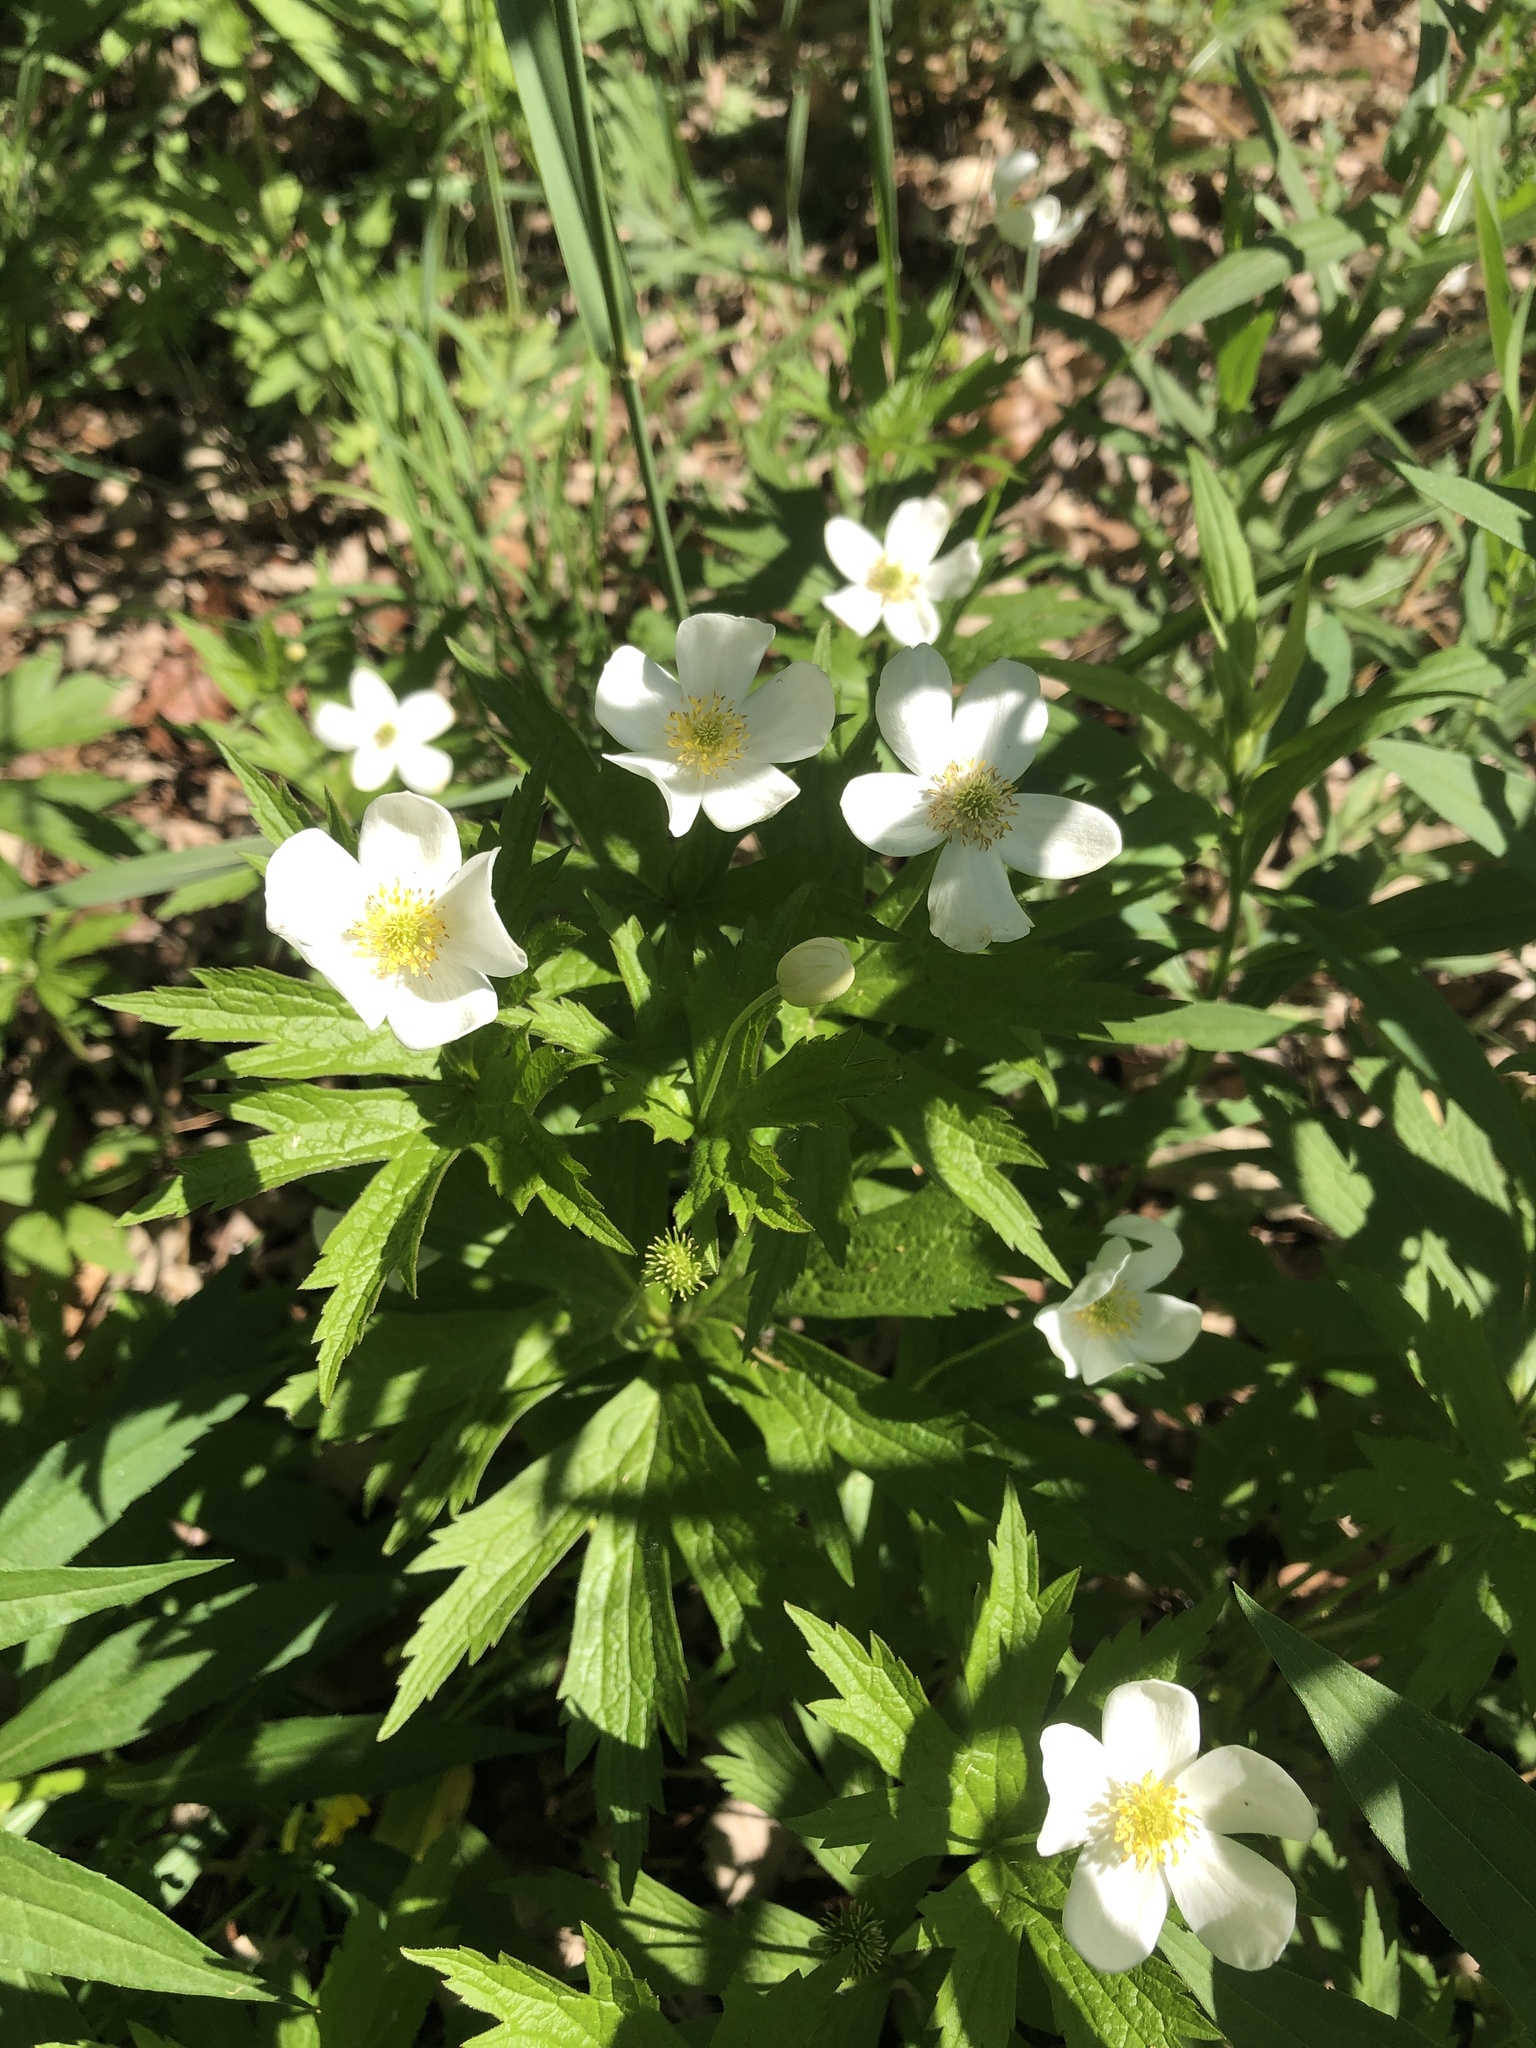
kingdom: Plantae
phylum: Tracheophyta
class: Magnoliopsida
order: Ranunculales
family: Ranunculaceae
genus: Anemonastrum
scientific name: Anemonastrum canadense
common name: Canada anemone
